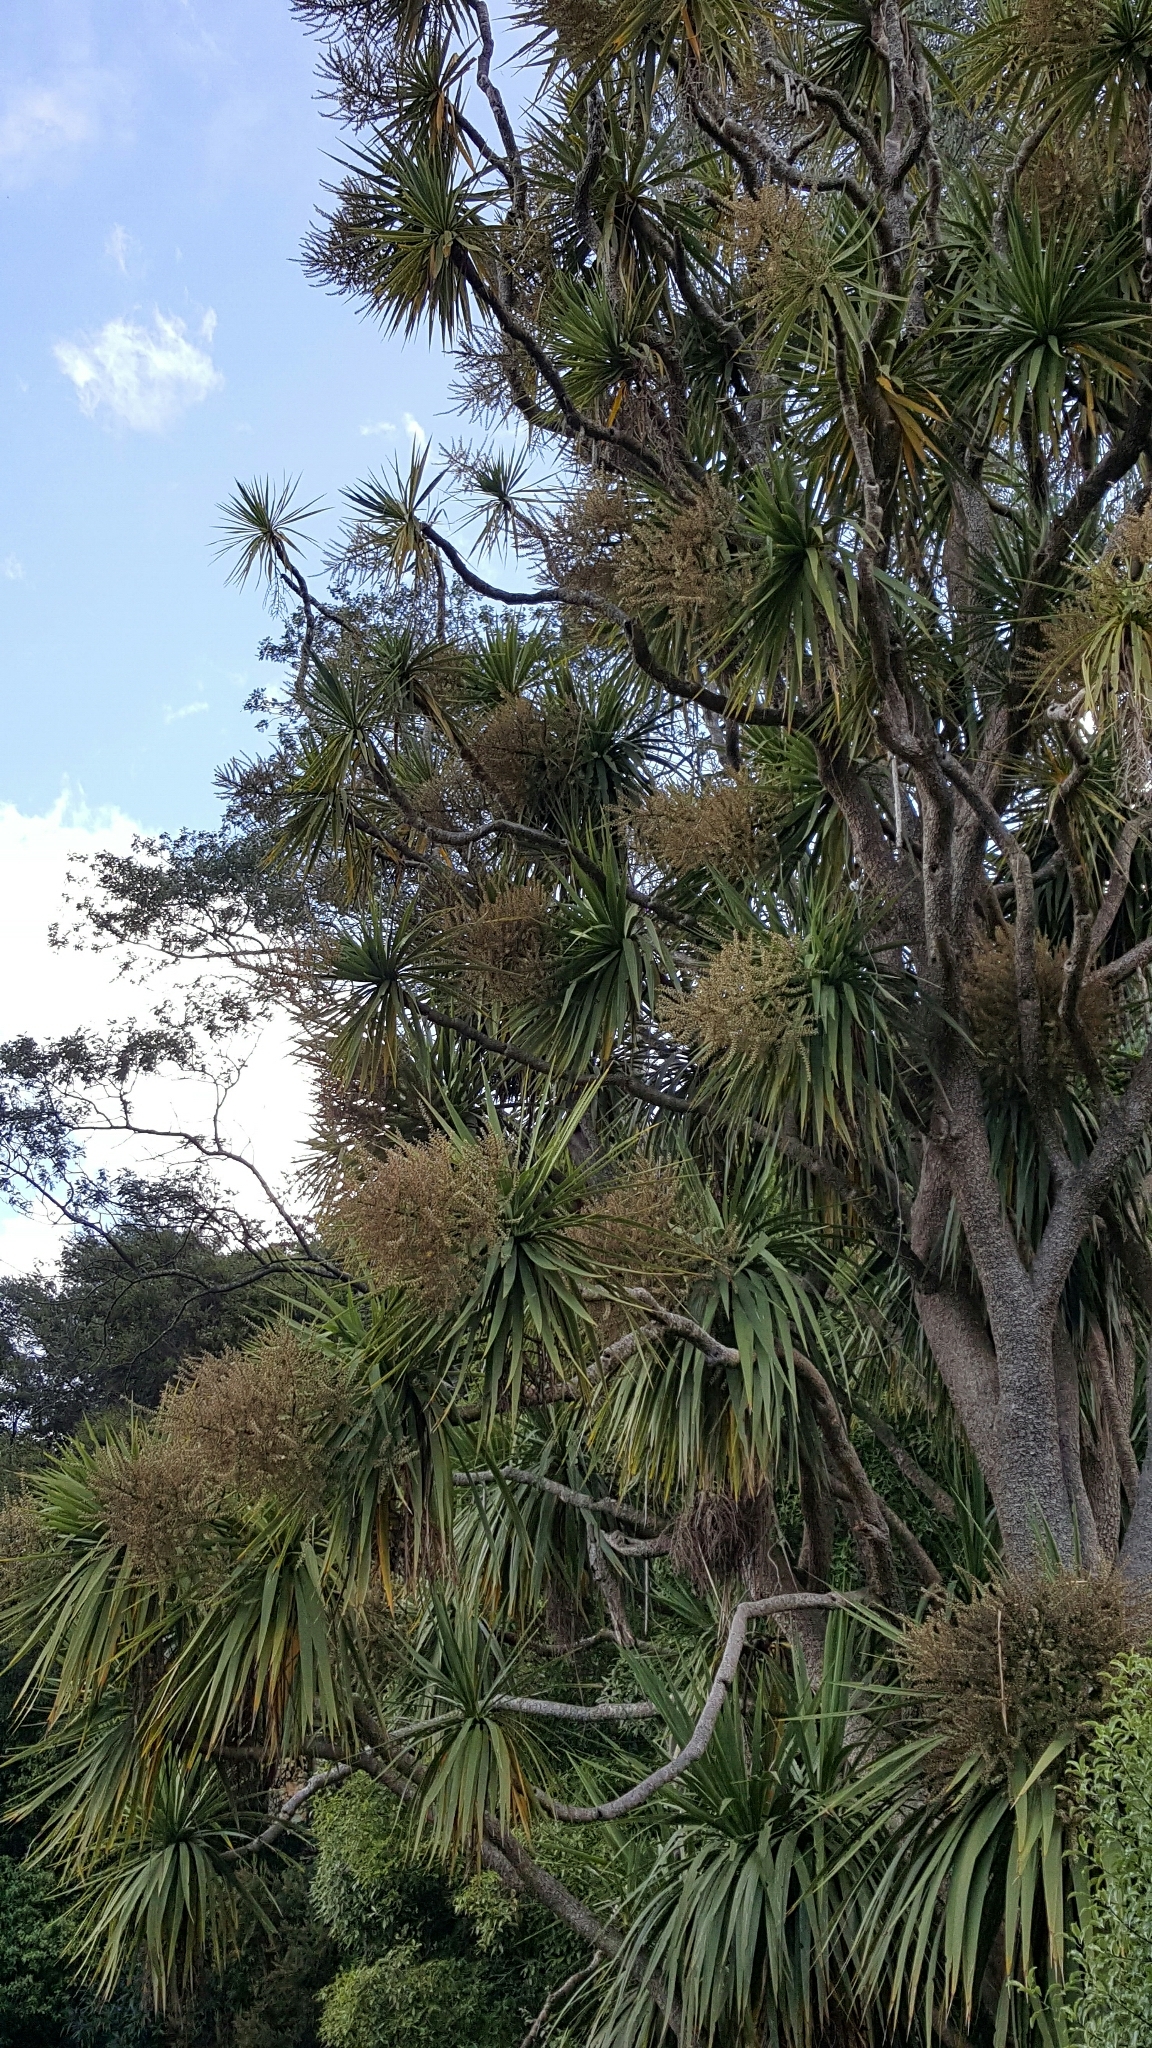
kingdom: Plantae
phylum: Tracheophyta
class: Liliopsida
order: Asparagales
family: Asparagaceae
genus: Cordyline
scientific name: Cordyline australis
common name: Cabbage-palm
